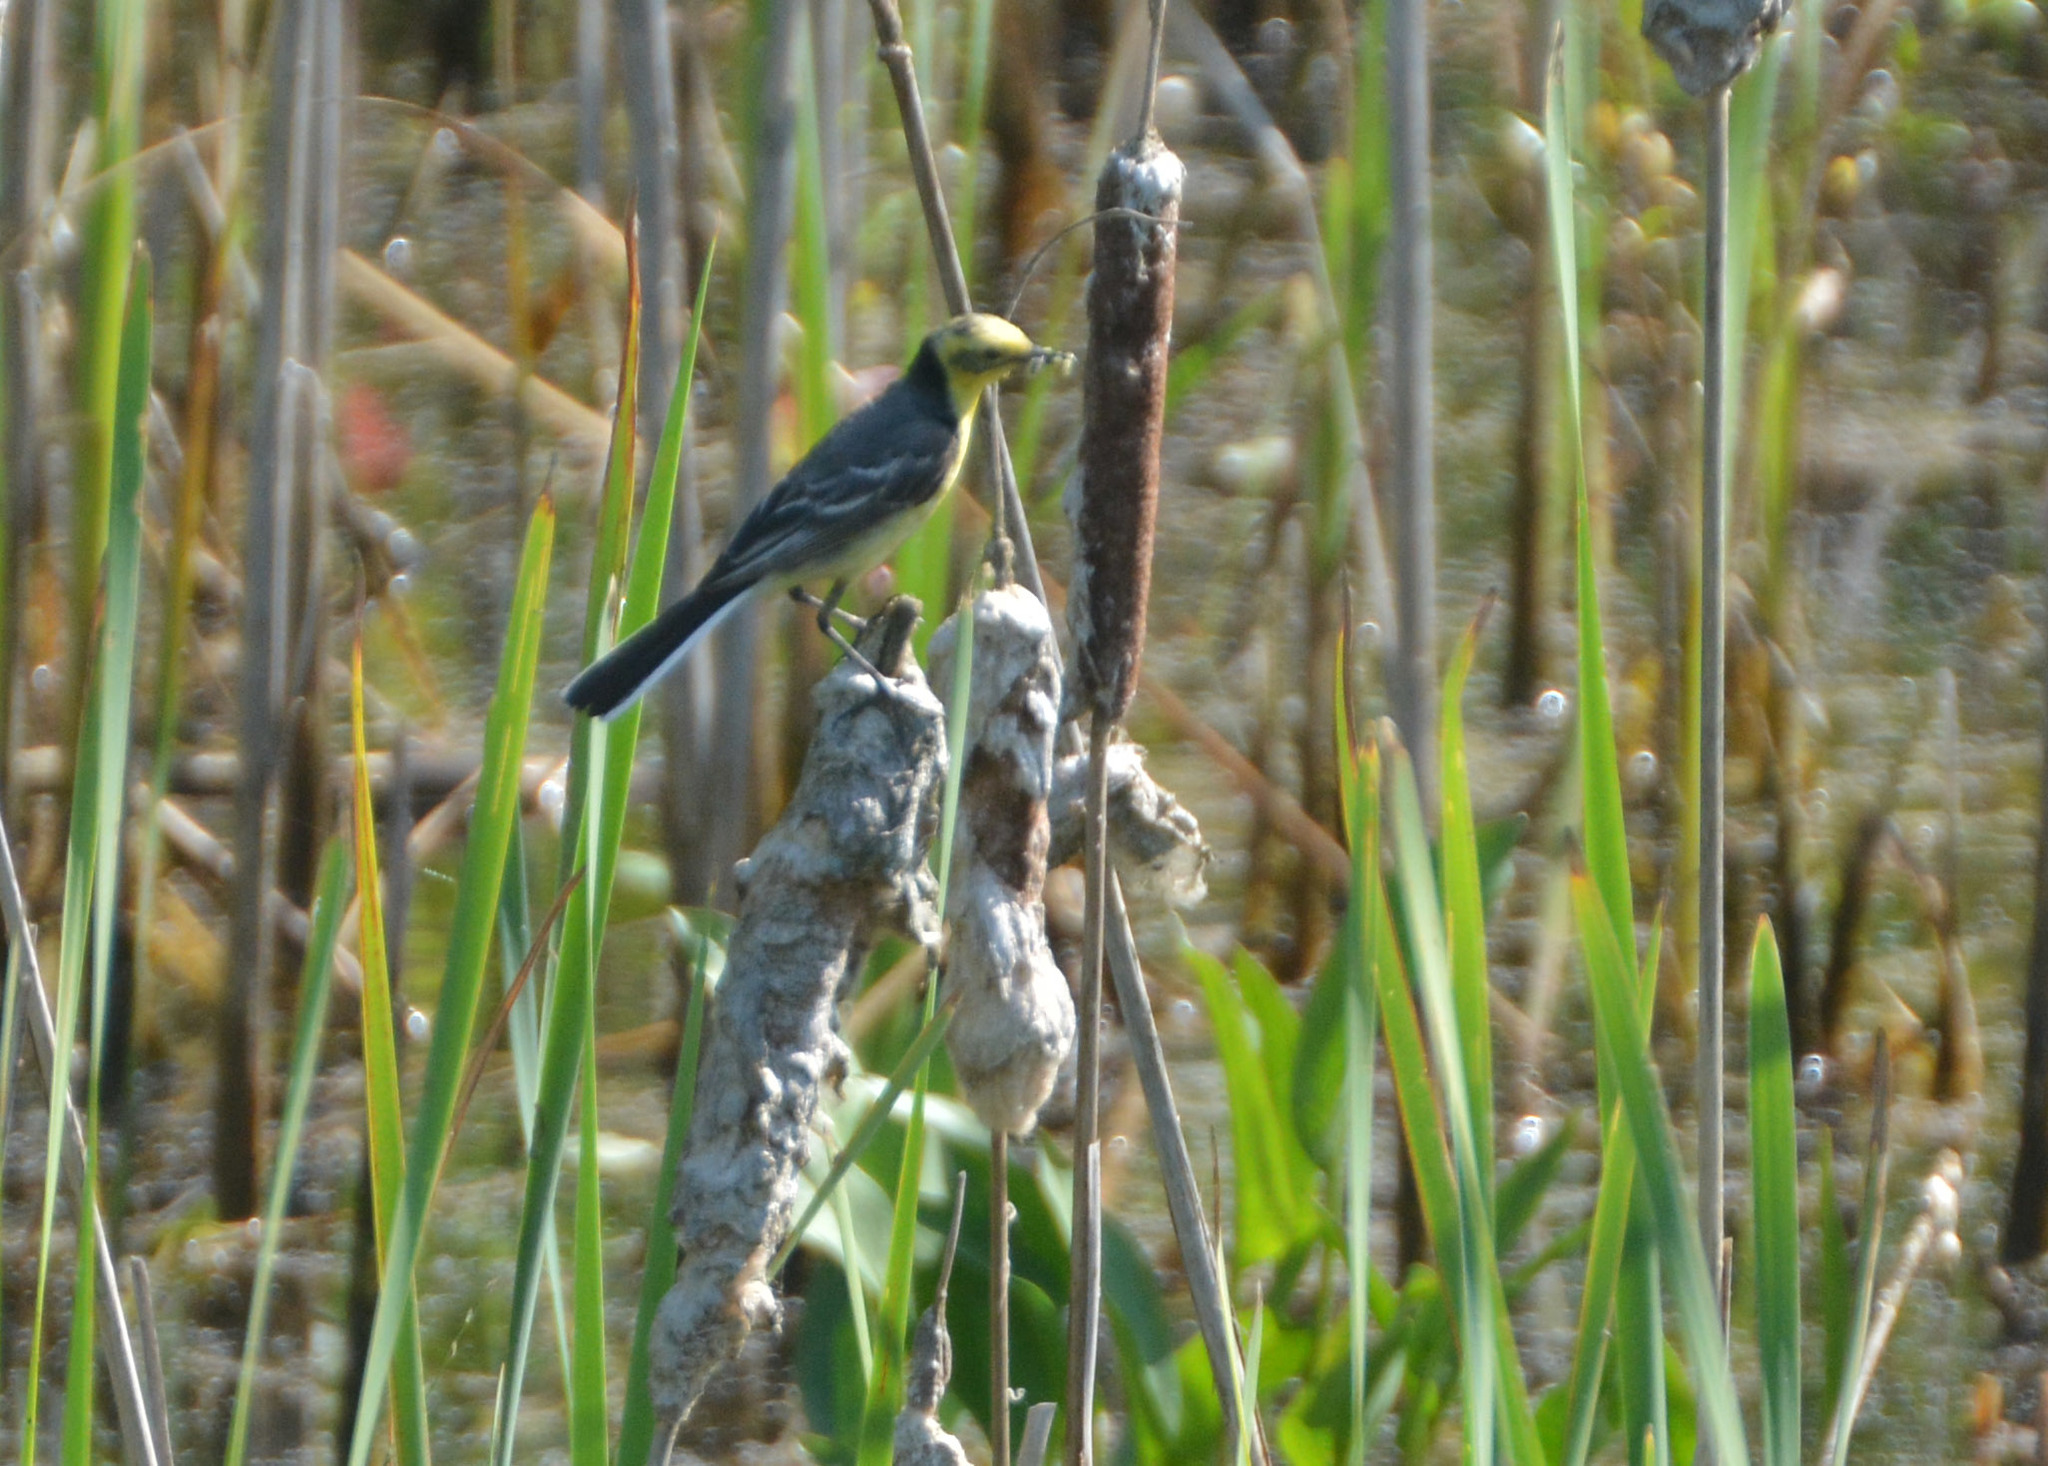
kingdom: Animalia
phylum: Chordata
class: Aves
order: Passeriformes
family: Motacillidae
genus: Motacilla
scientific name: Motacilla citreola
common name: Citrine wagtail
